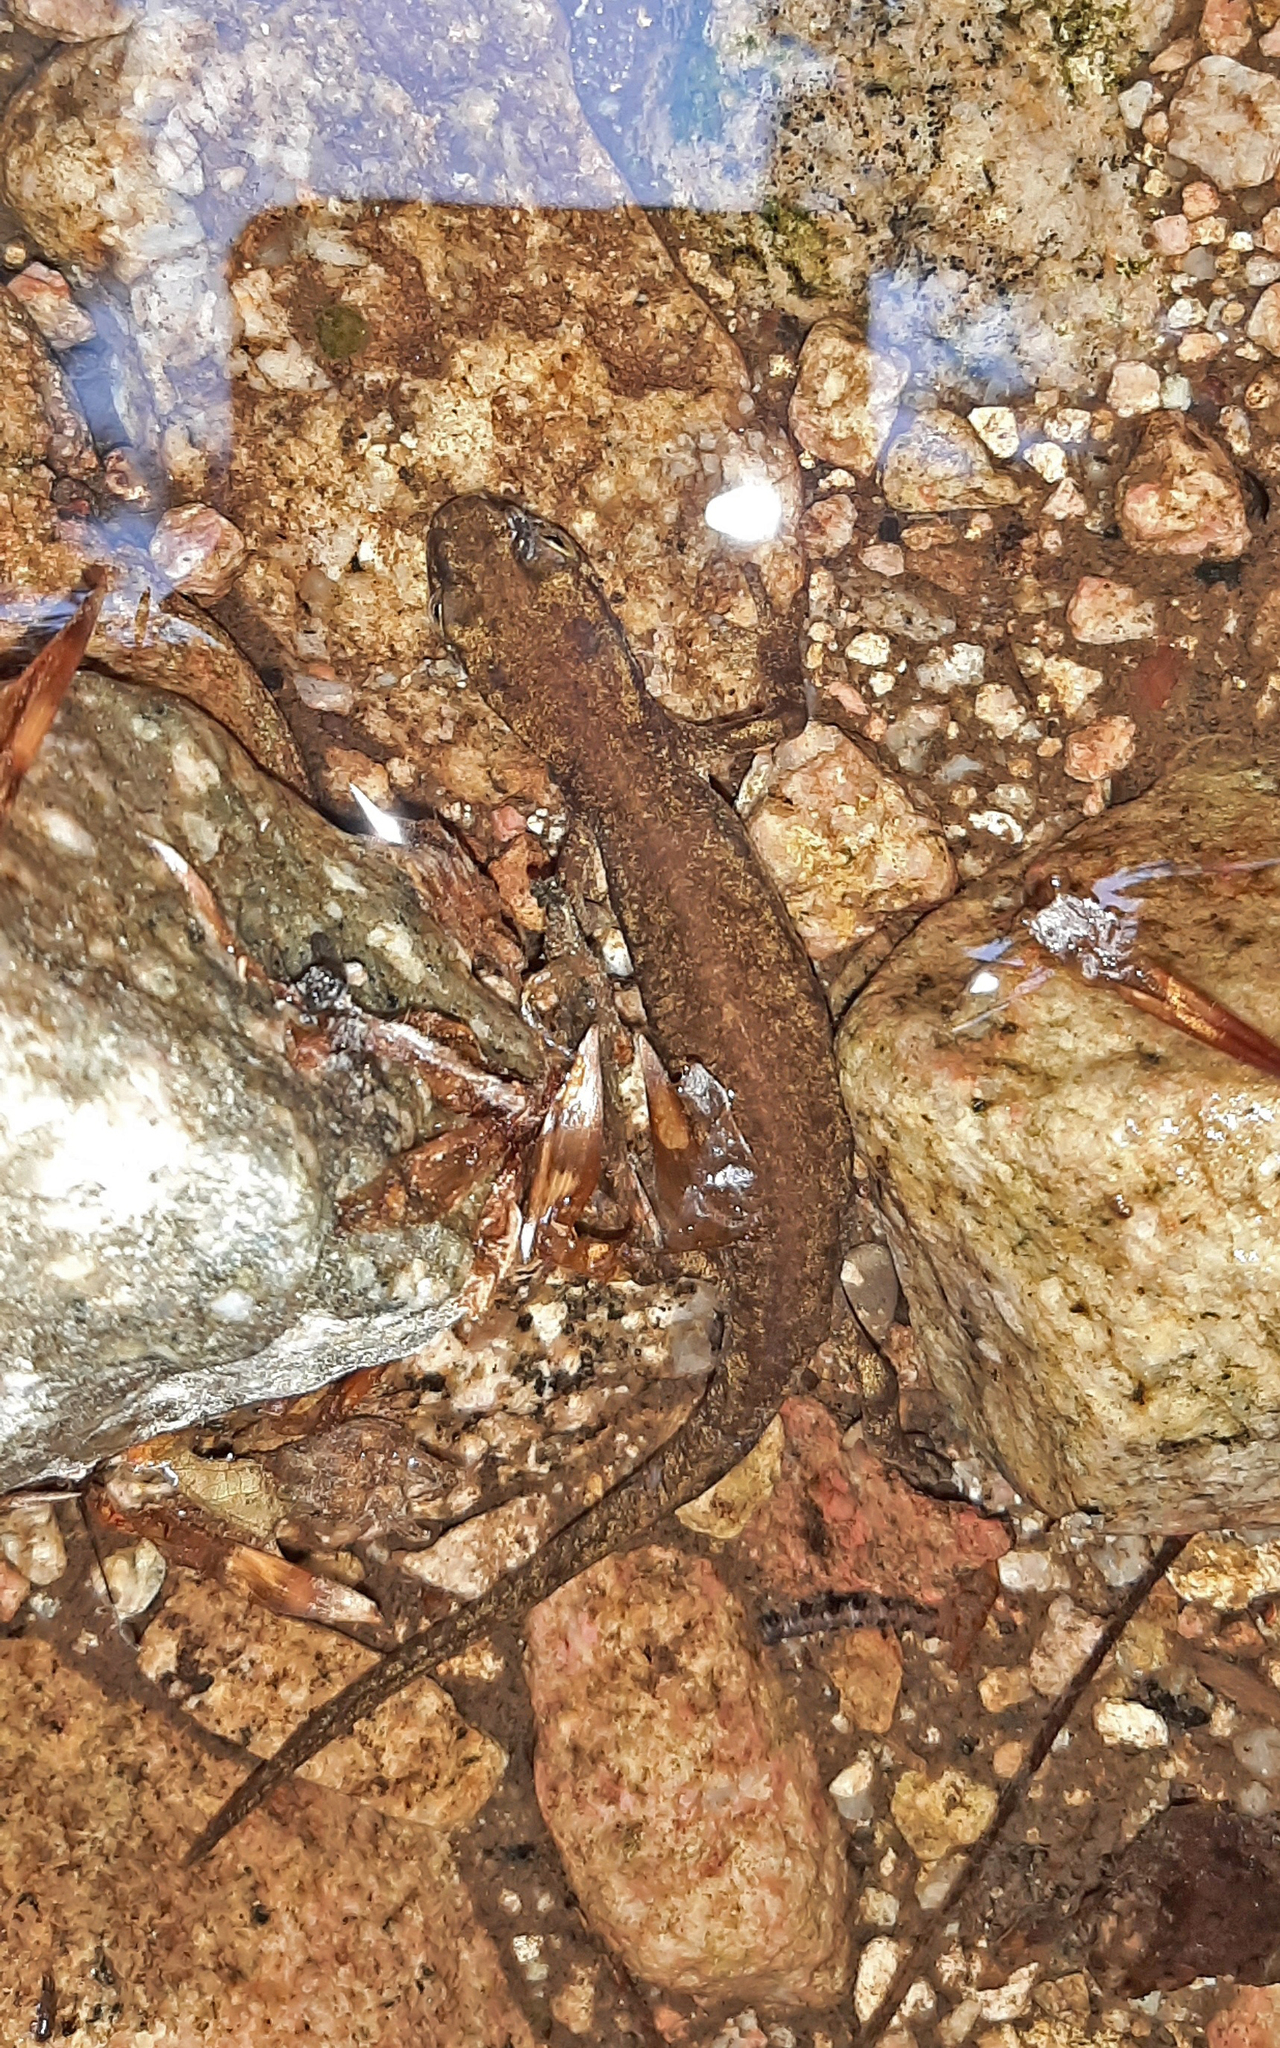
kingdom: Animalia
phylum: Chordata
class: Amphibia
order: Caudata
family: Salamandridae
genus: Euproctus
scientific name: Euproctus montanus
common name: Corsican brook salamander
